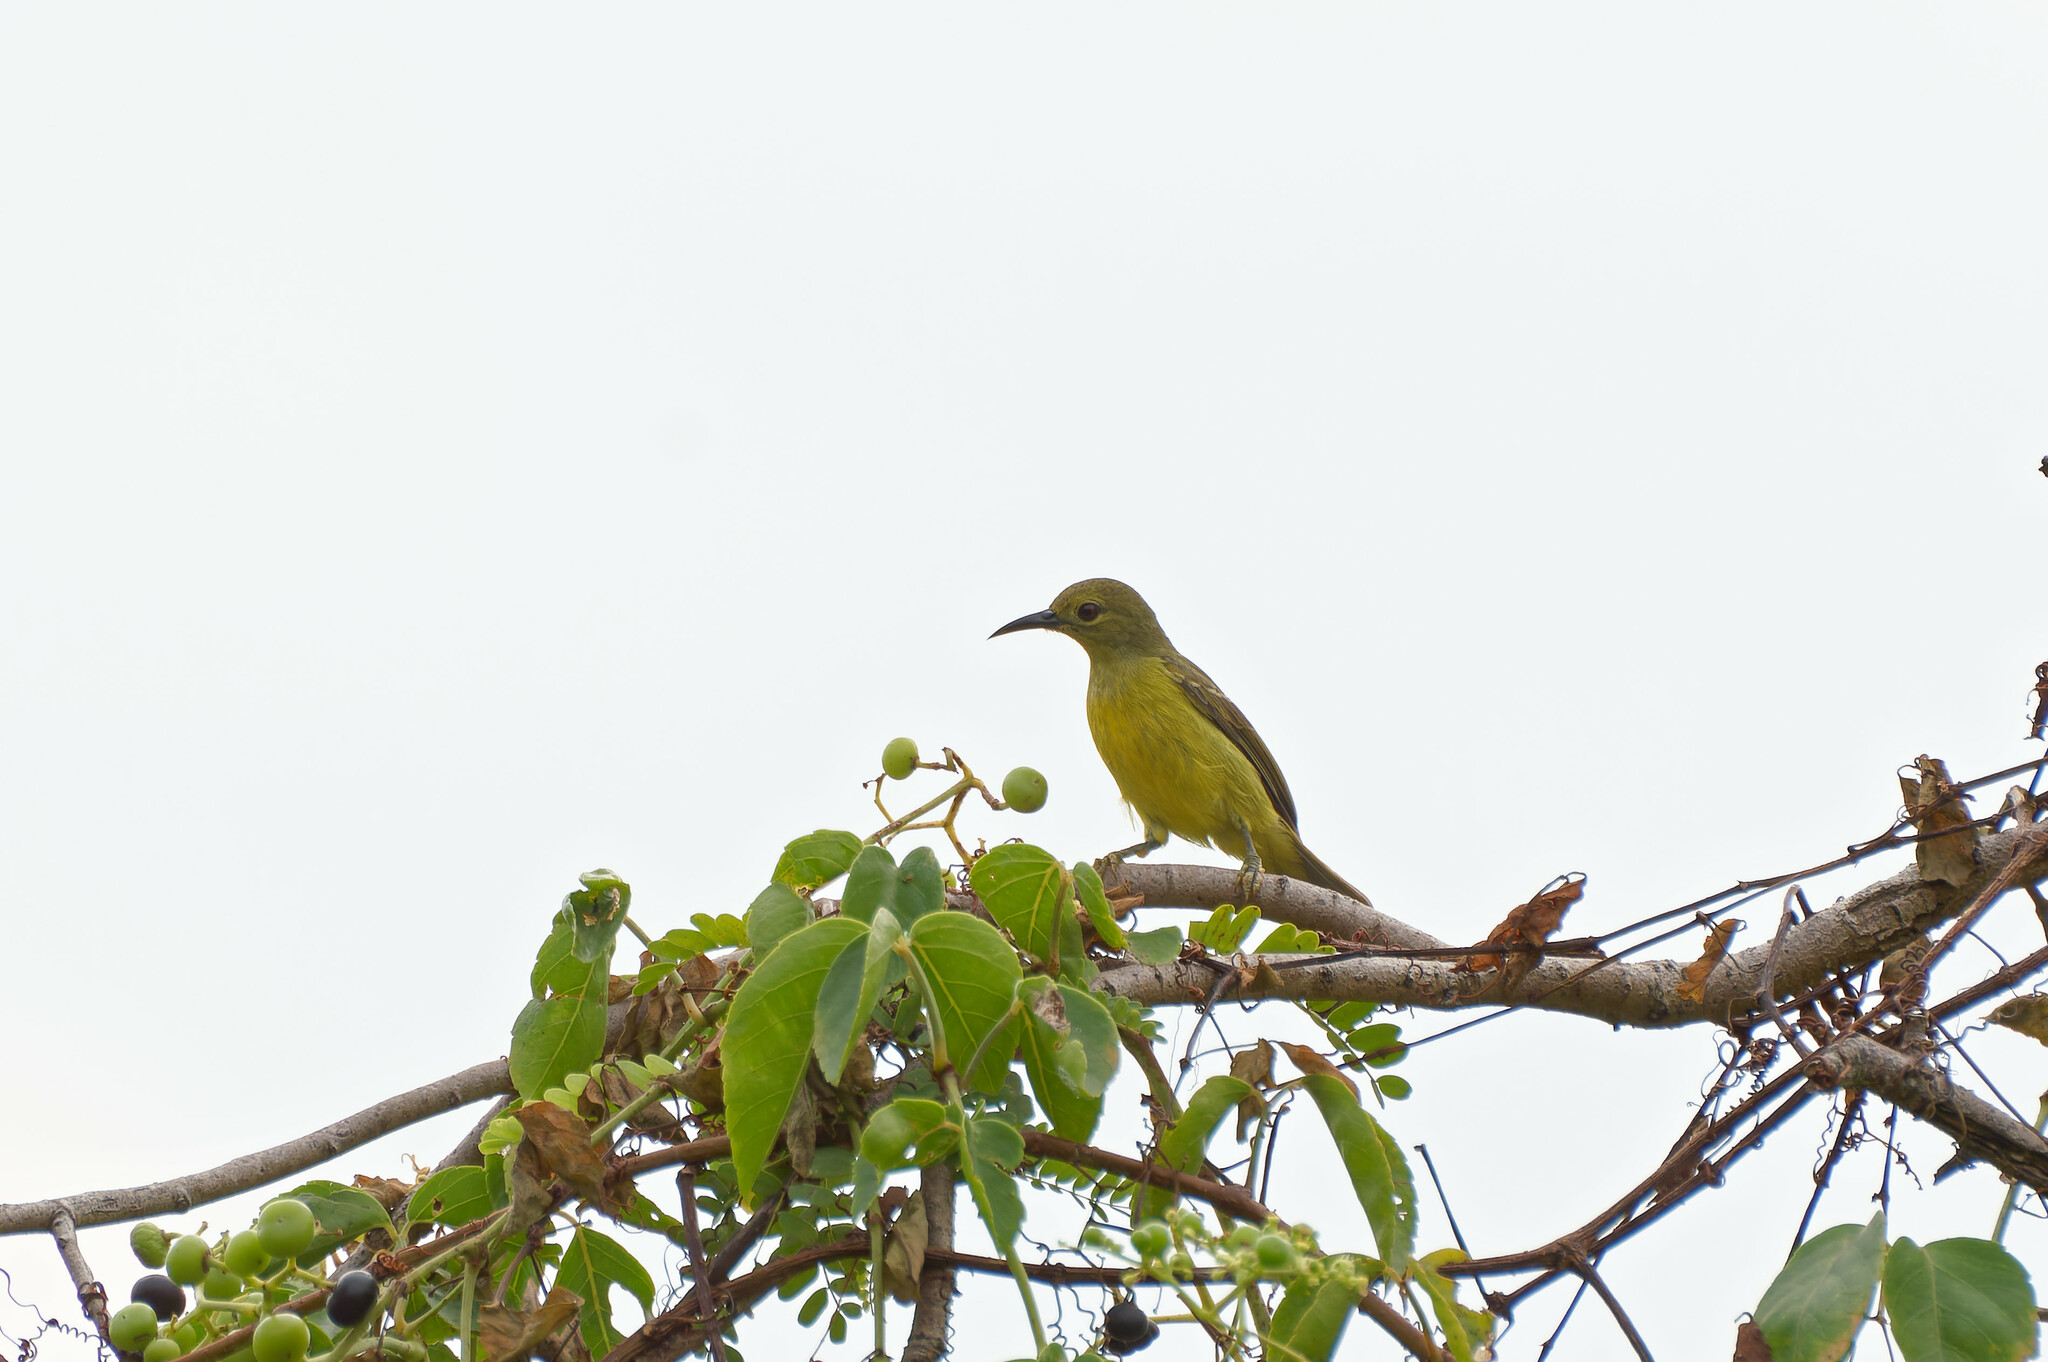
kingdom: Animalia
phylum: Chordata
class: Aves
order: Passeriformes
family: Nectariniidae
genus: Anthreptes
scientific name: Anthreptes malacensis
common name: Brown-throated sunbird
